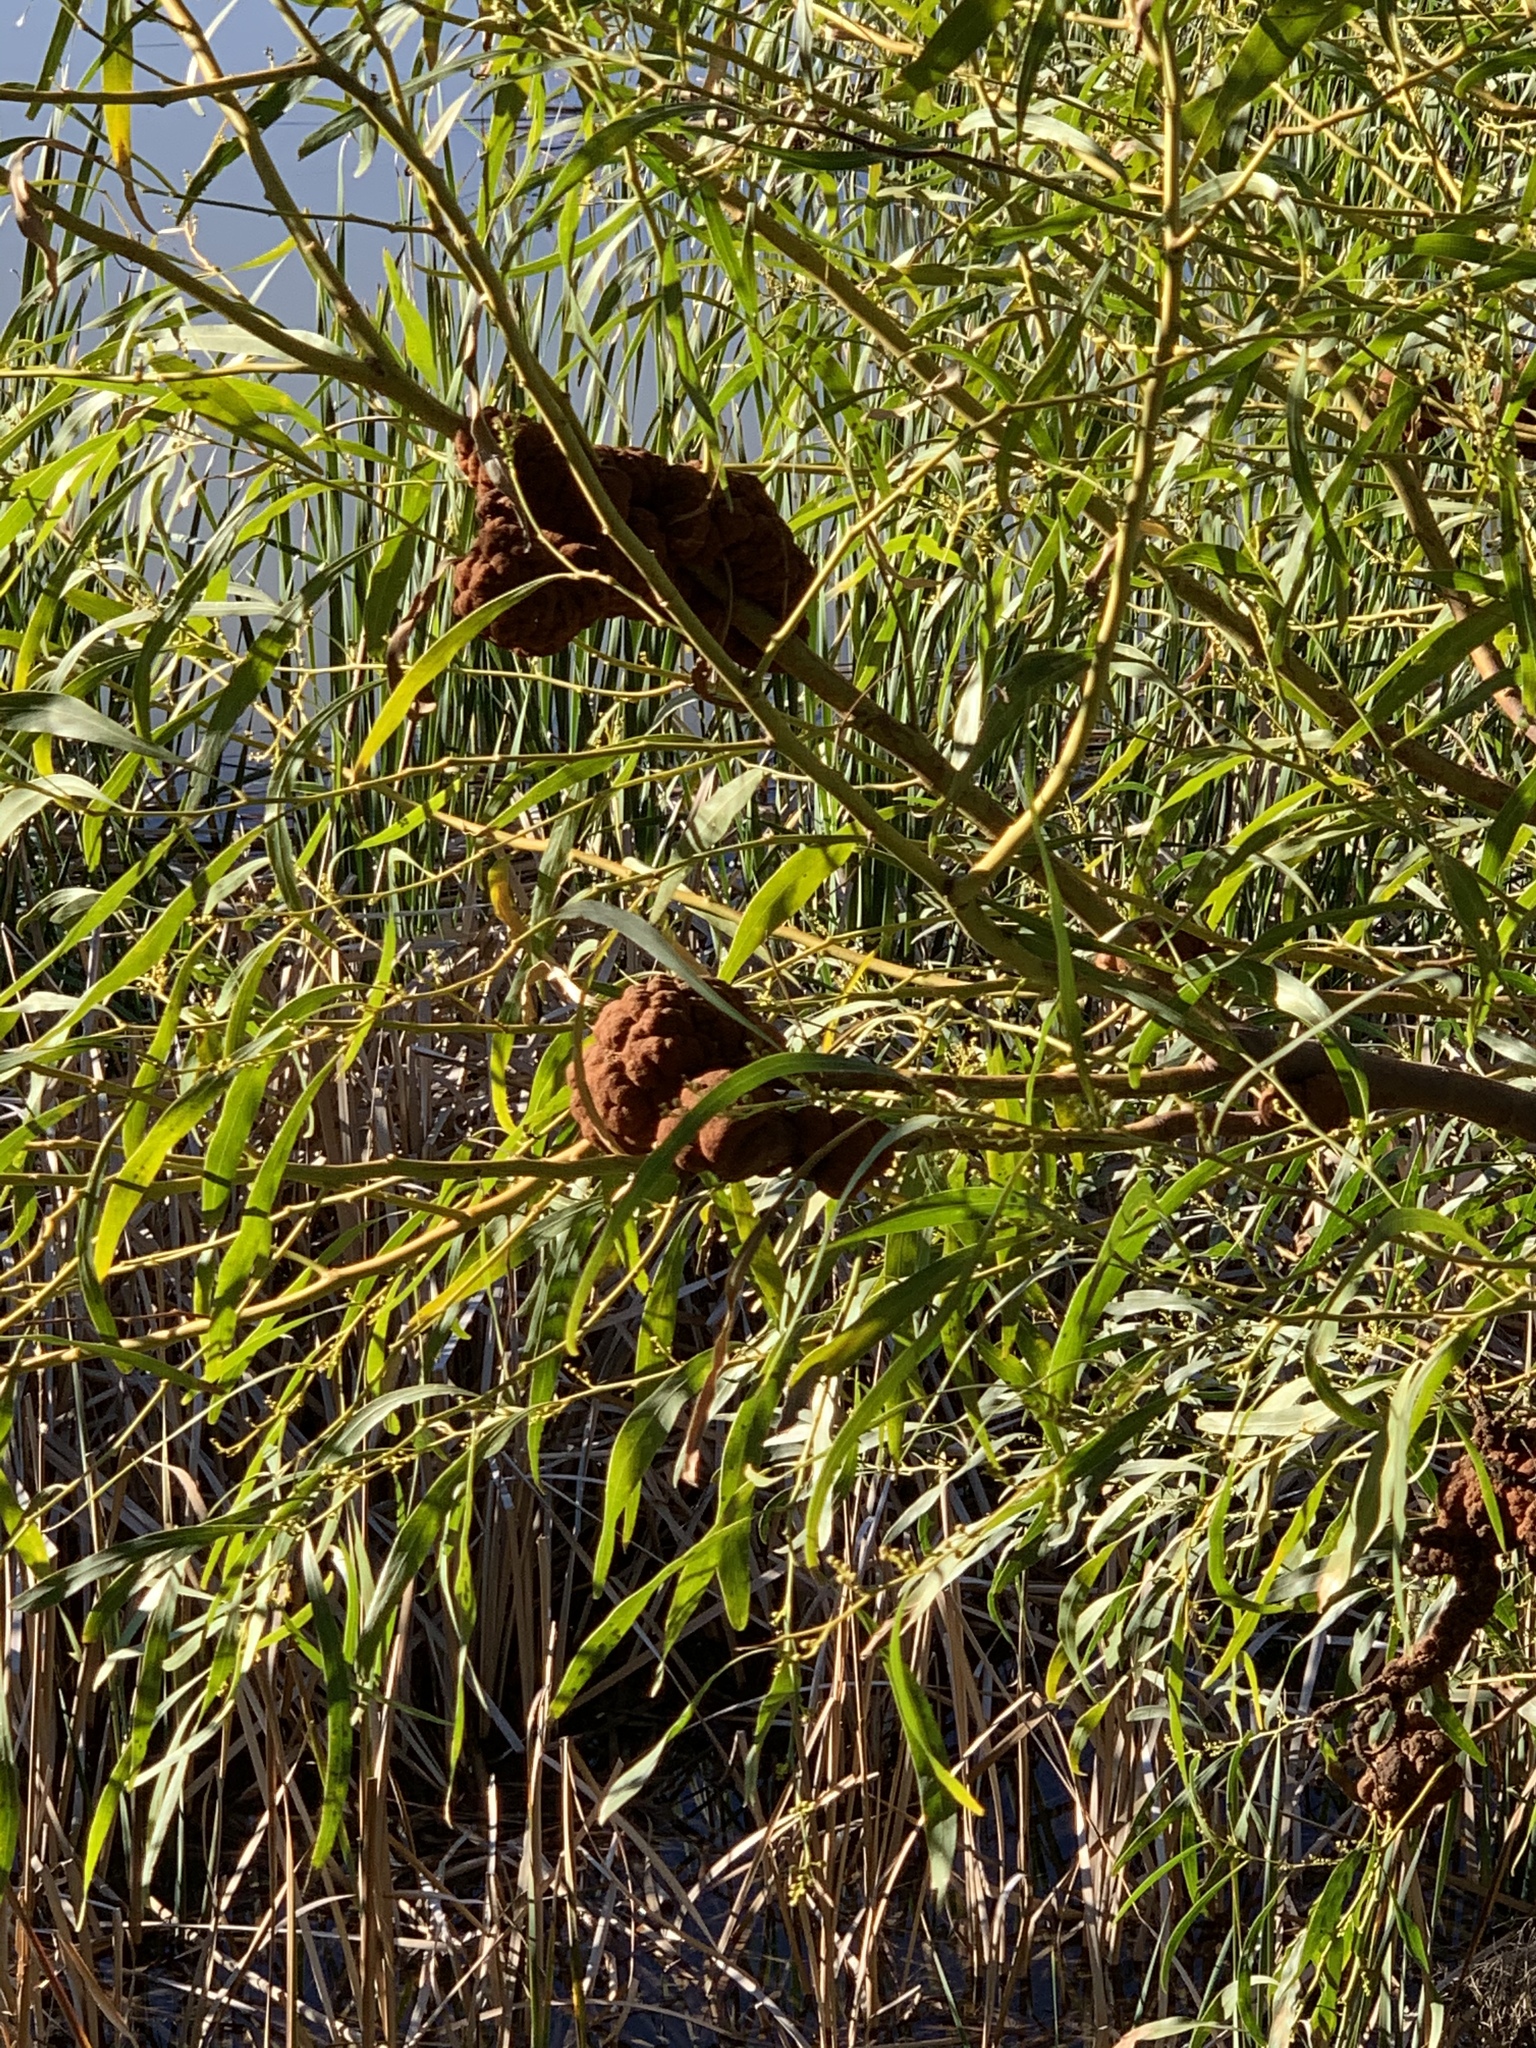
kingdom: Fungi
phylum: Basidiomycota
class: Pucciniomycetes
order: Pucciniales
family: Uromycladiaceae
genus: Uromycladium
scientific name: Uromycladium morrisii
